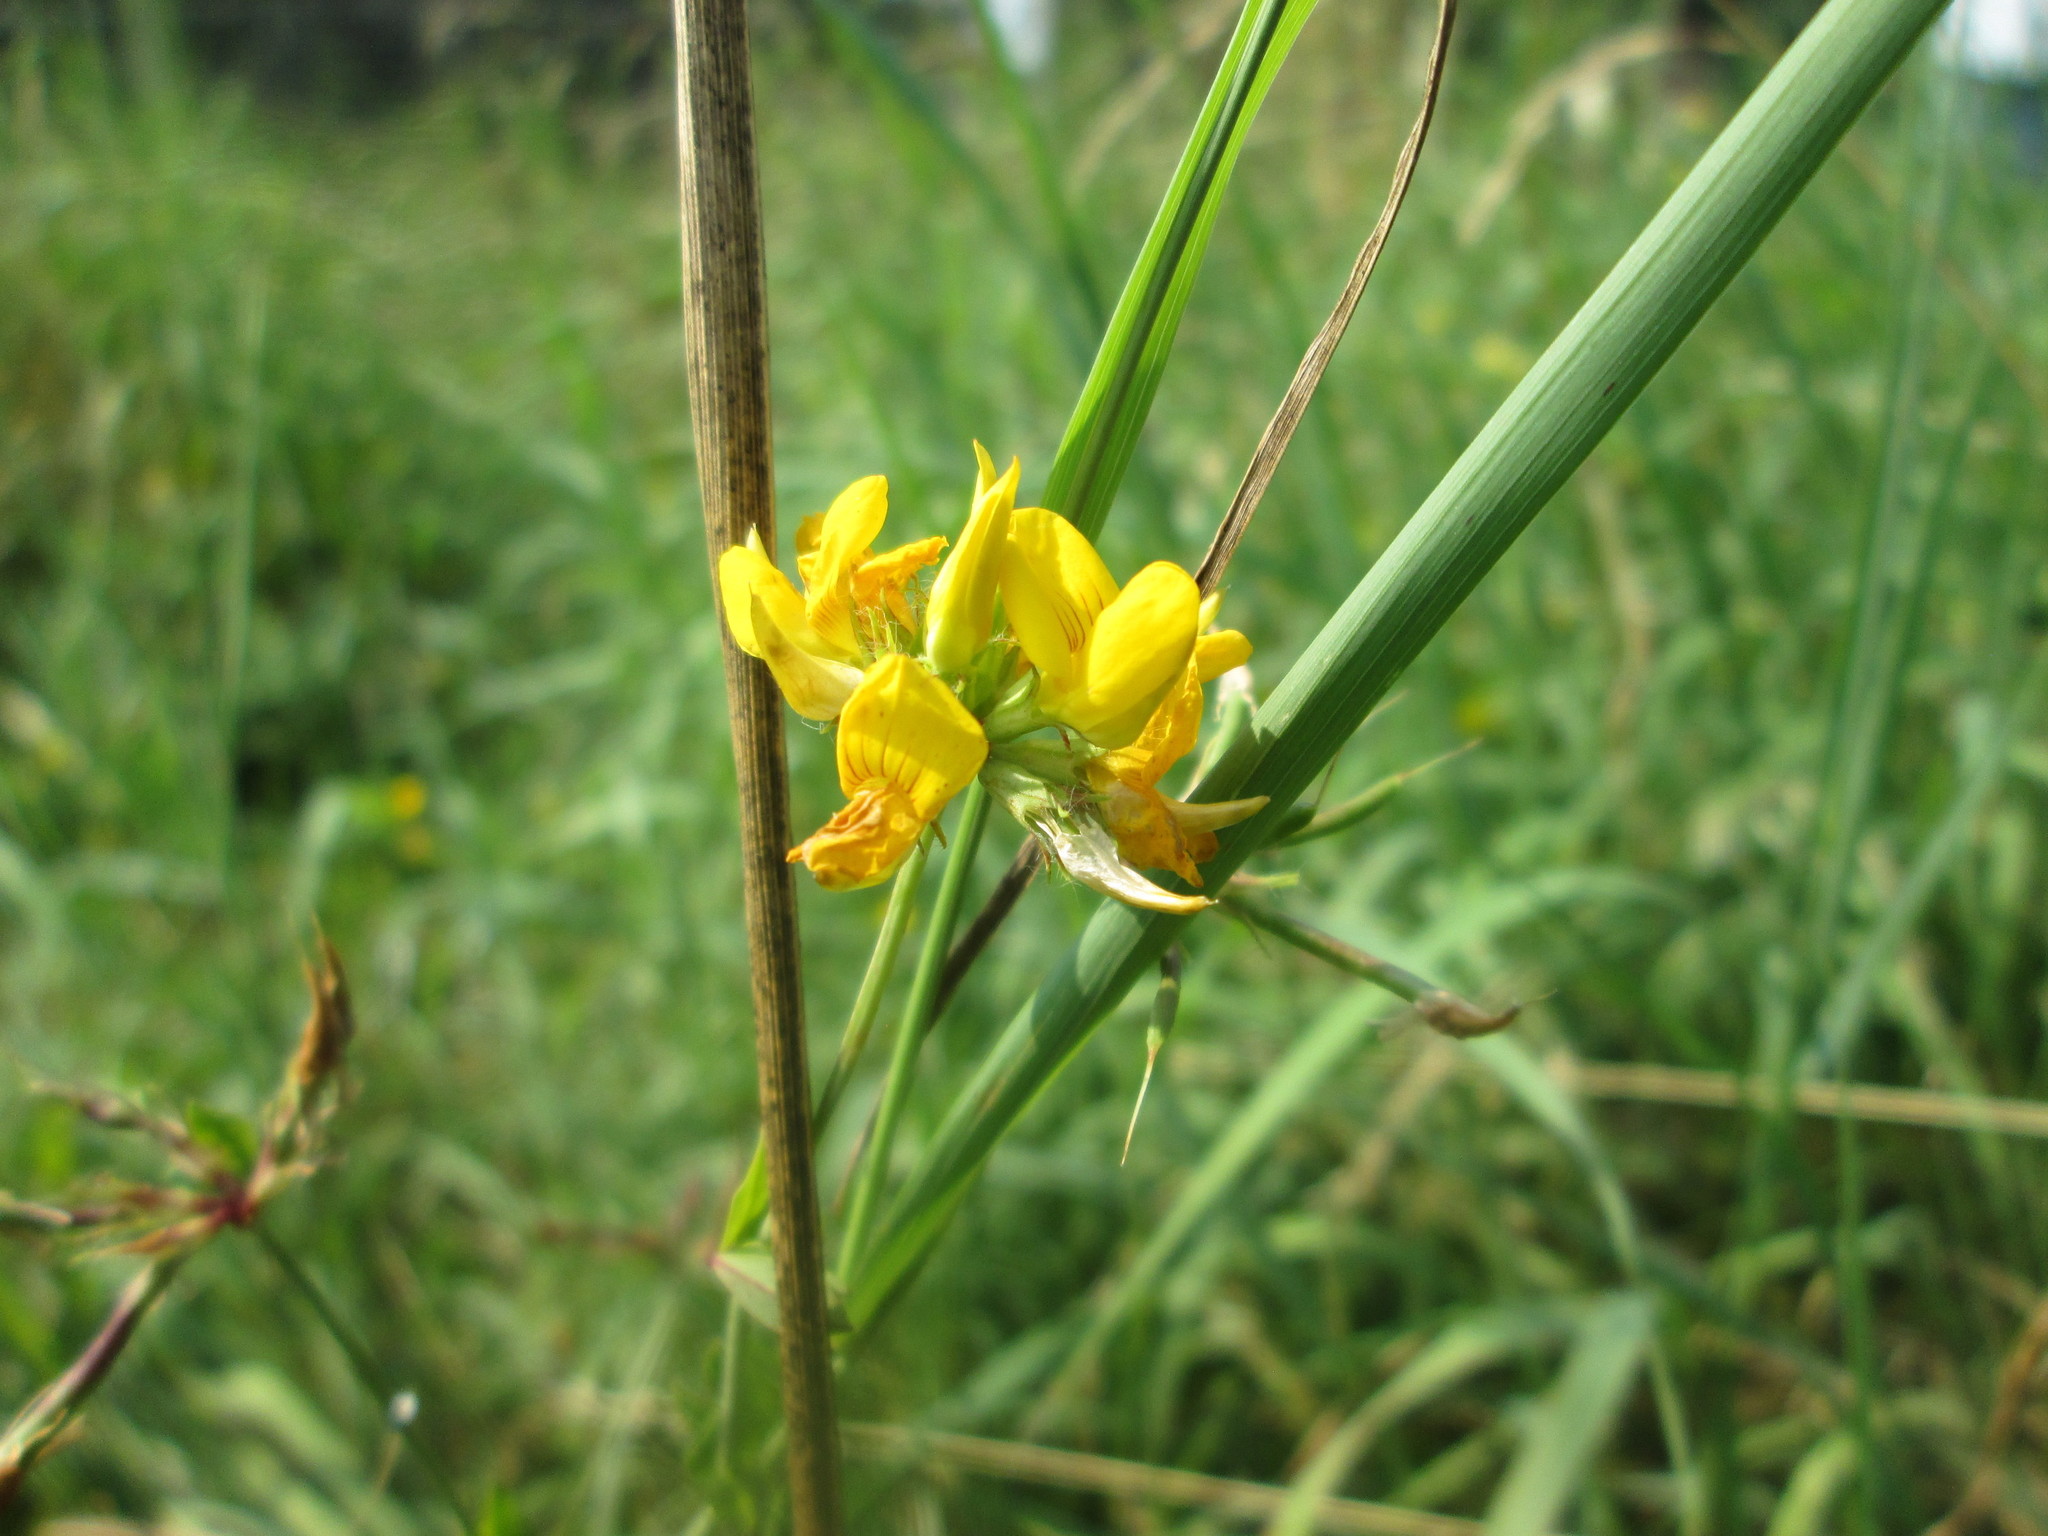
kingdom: Plantae
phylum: Tracheophyta
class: Magnoliopsida
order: Fabales
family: Fabaceae
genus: Lotus
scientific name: Lotus corniculatus
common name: Common bird's-foot-trefoil
